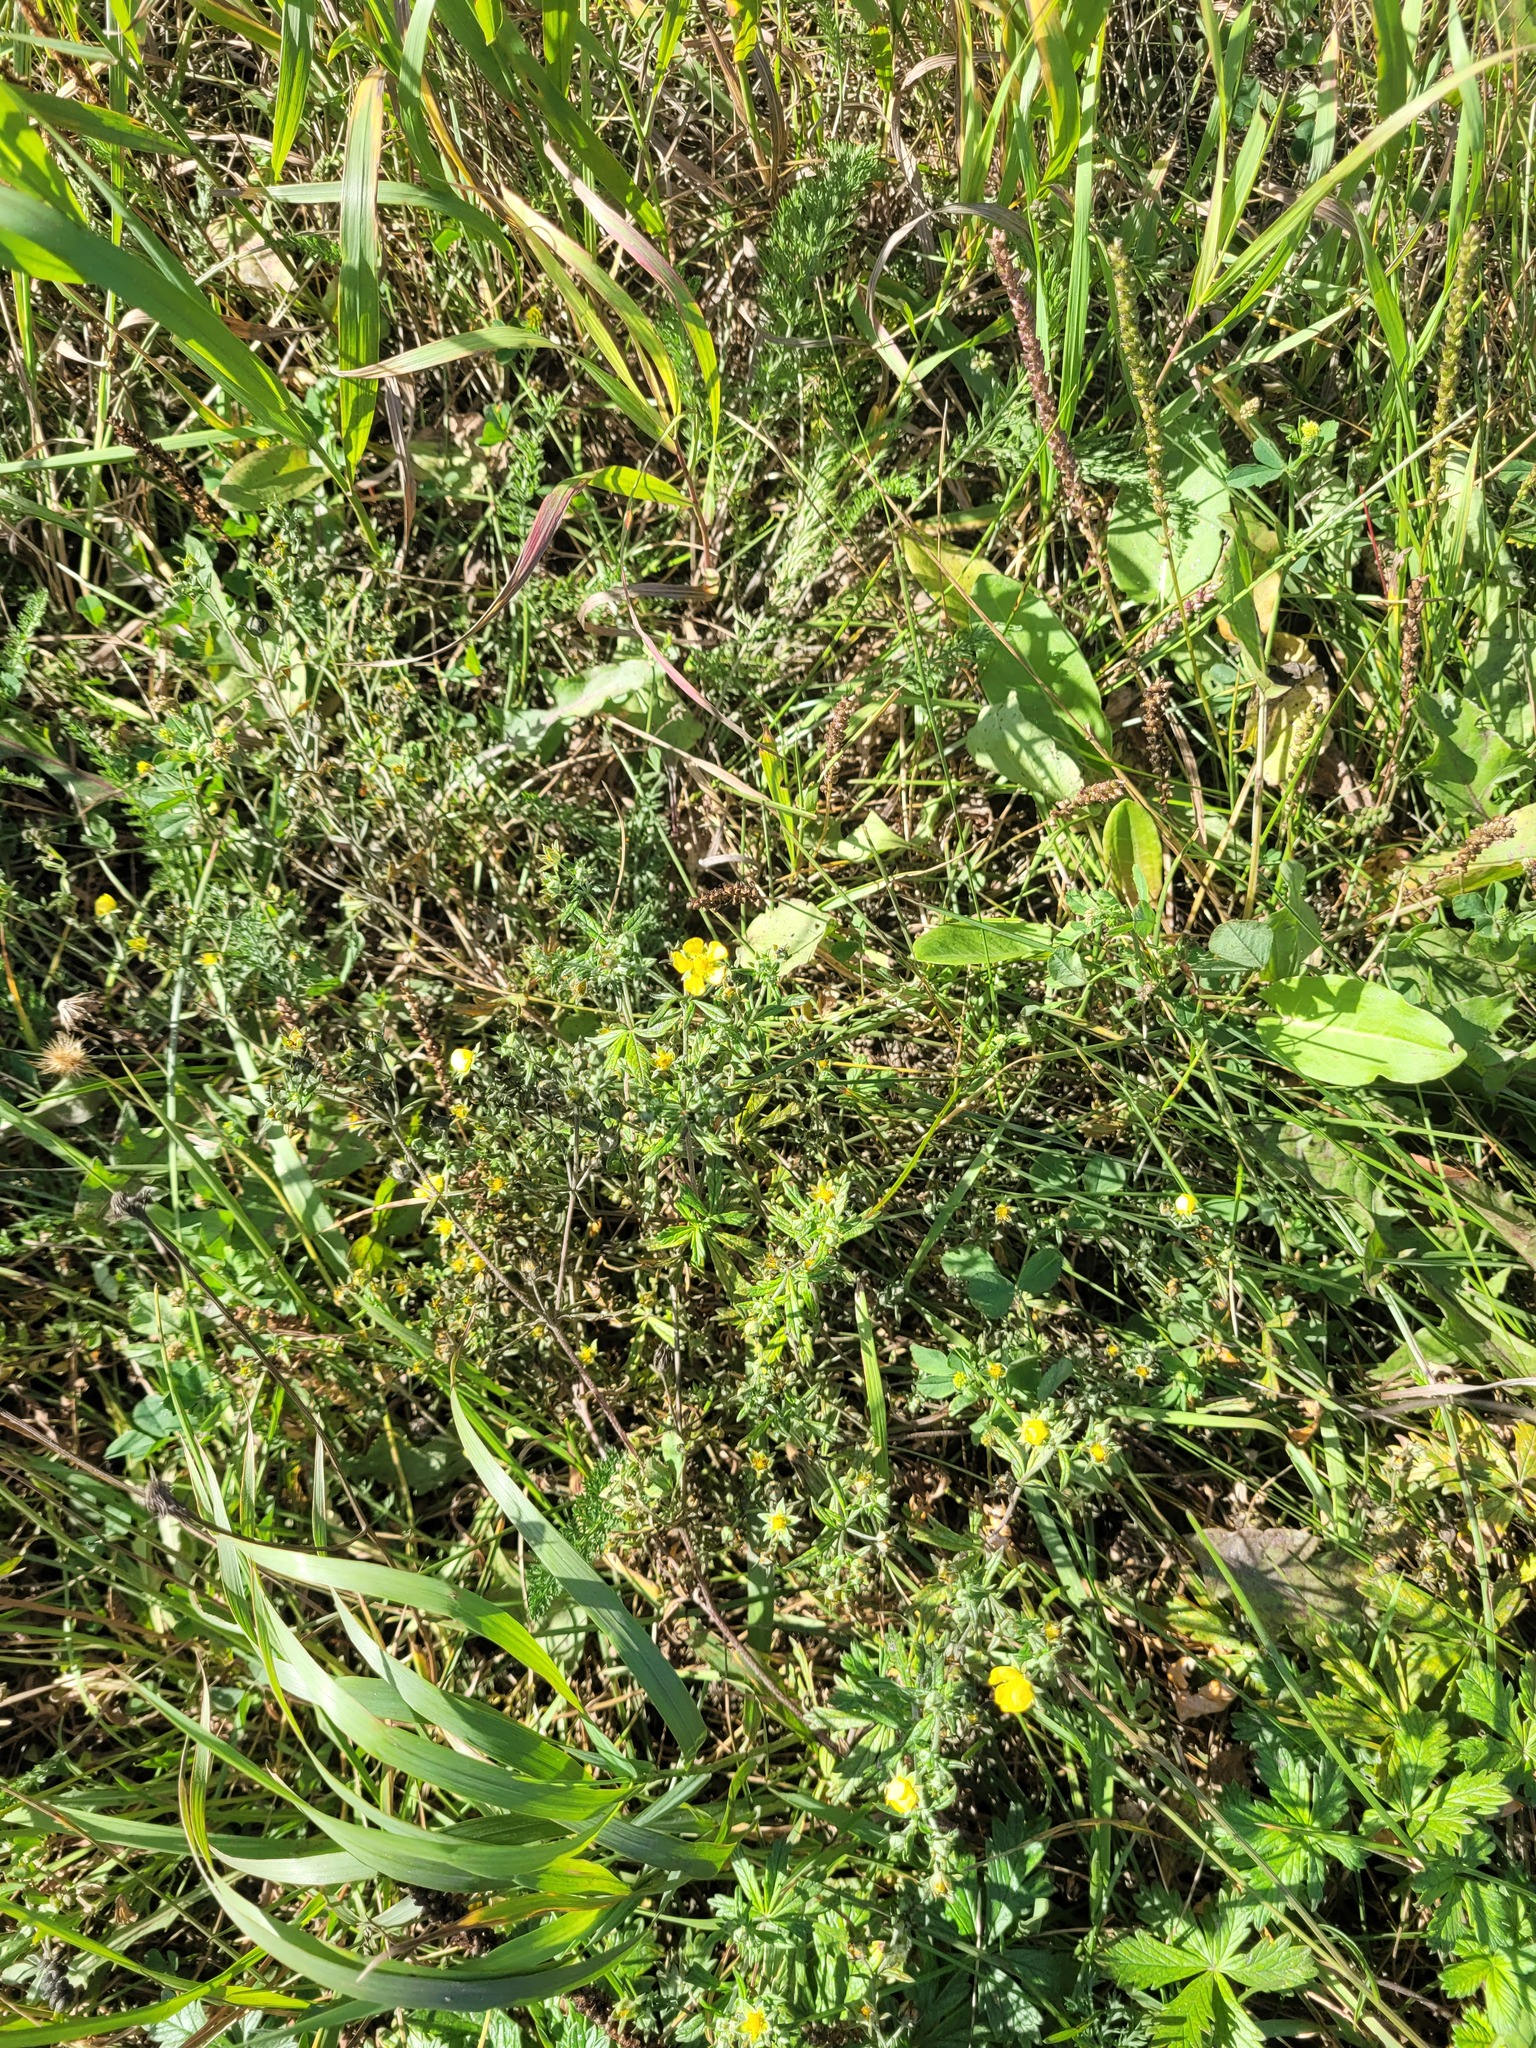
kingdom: Plantae
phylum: Tracheophyta
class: Magnoliopsida
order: Rosales
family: Rosaceae
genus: Potentilla
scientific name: Potentilla argentea
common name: Hoary cinquefoil
